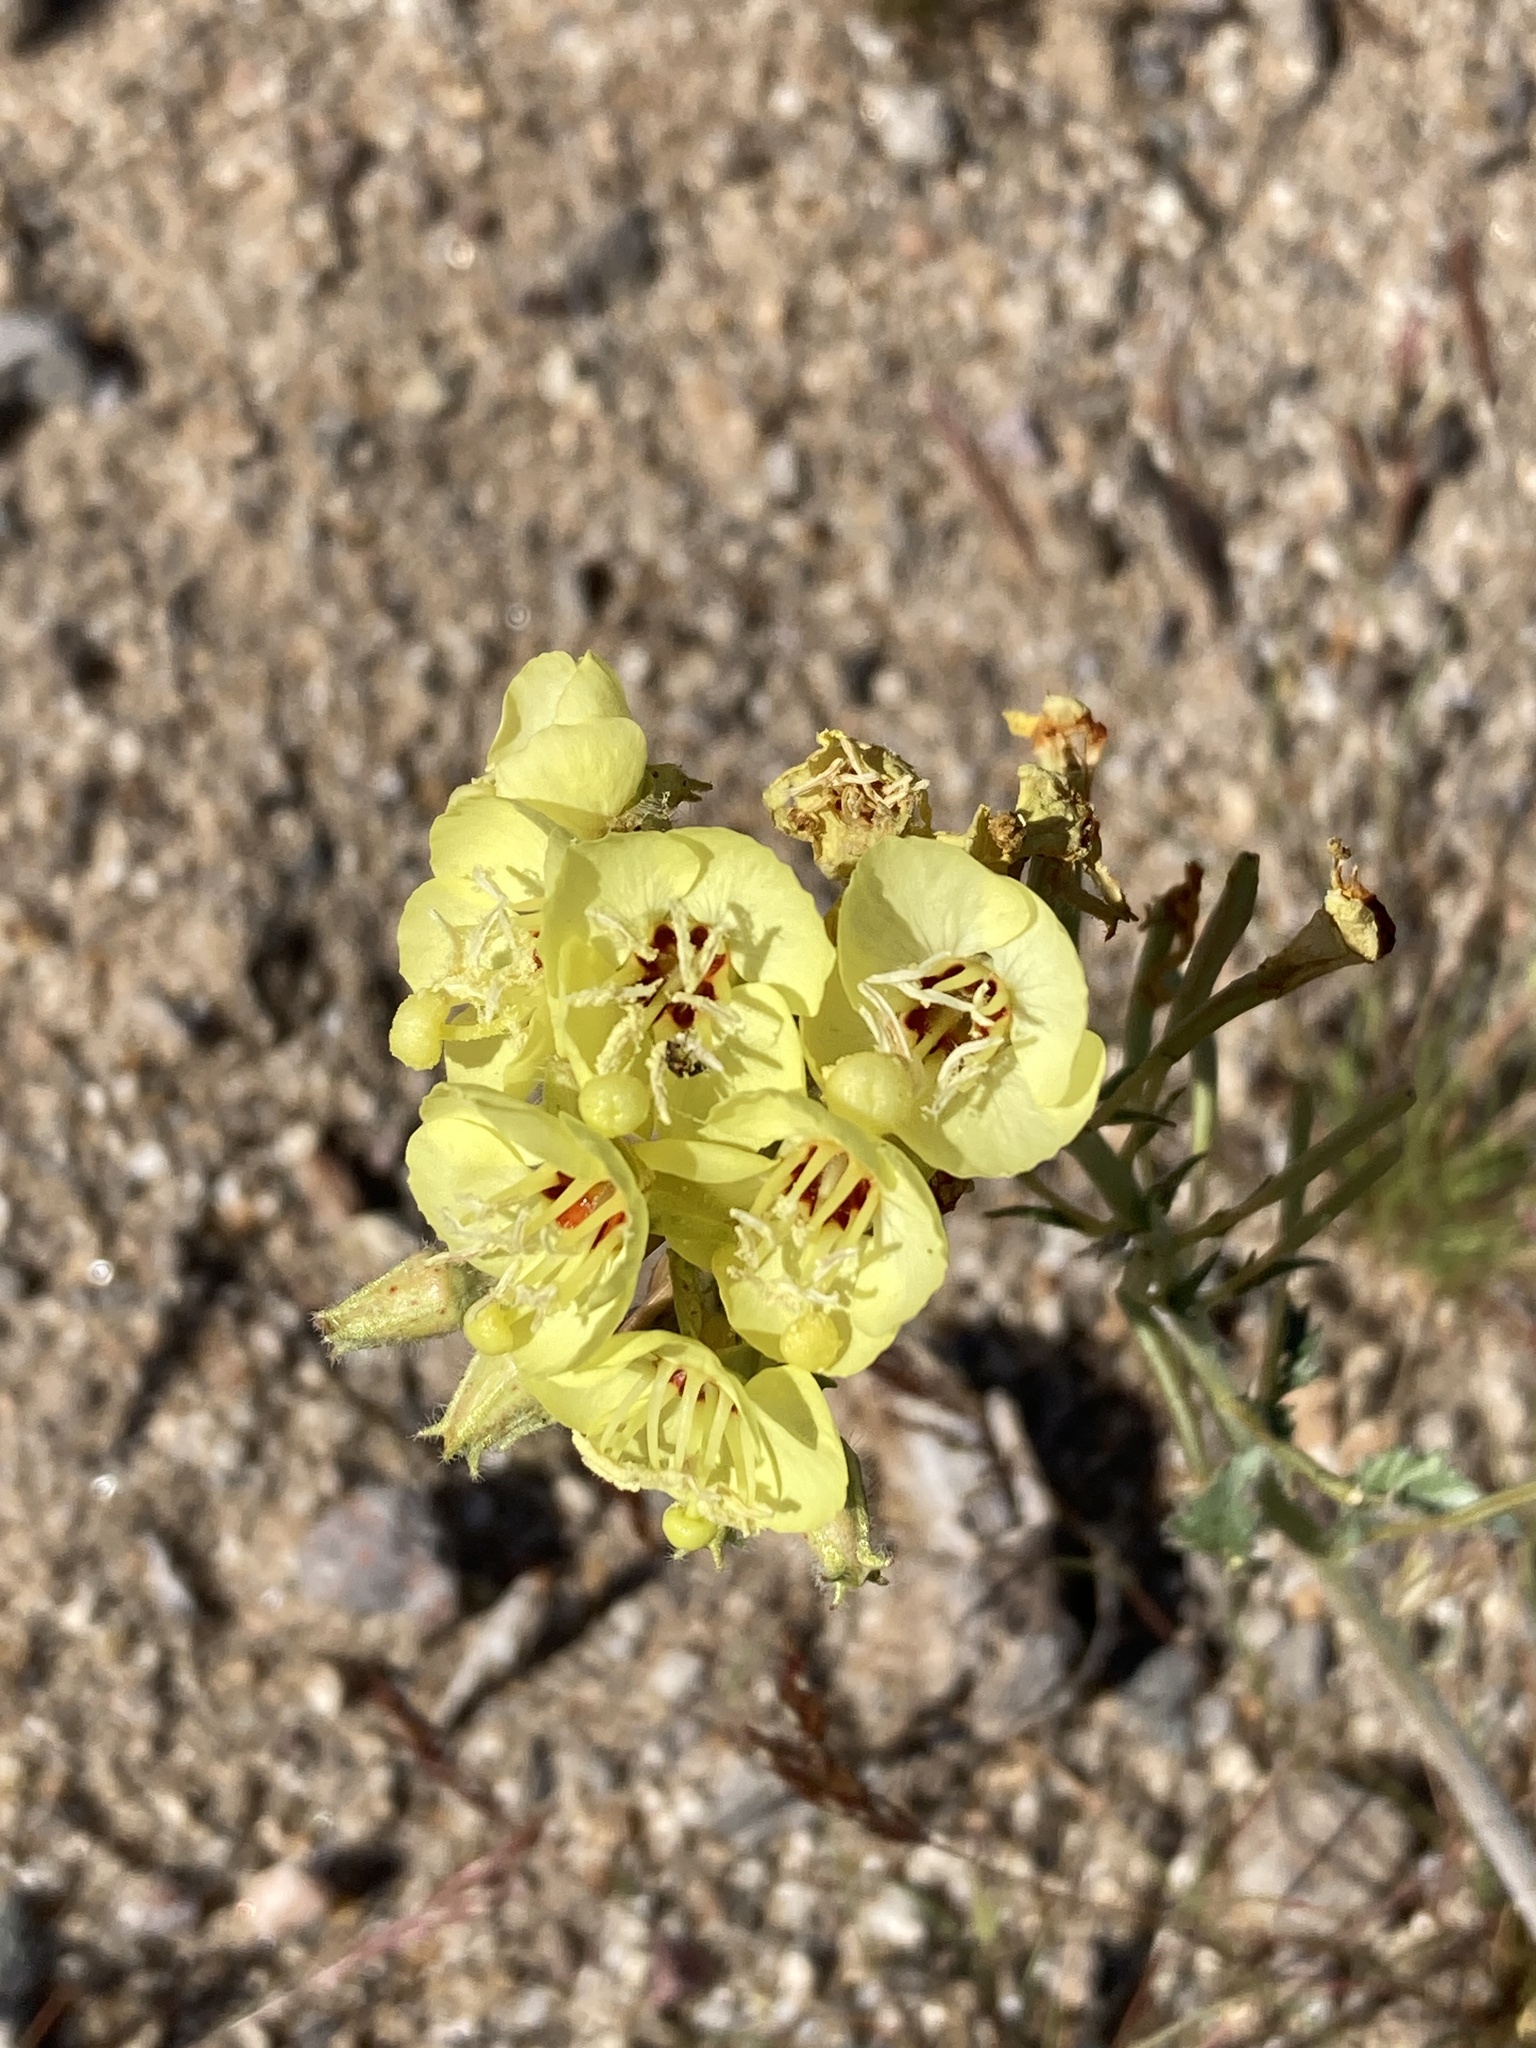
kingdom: Plantae
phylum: Tracheophyta
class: Magnoliopsida
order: Myrtales
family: Onagraceae
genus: Chylismia
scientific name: Chylismia claviformis
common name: Browneyes
